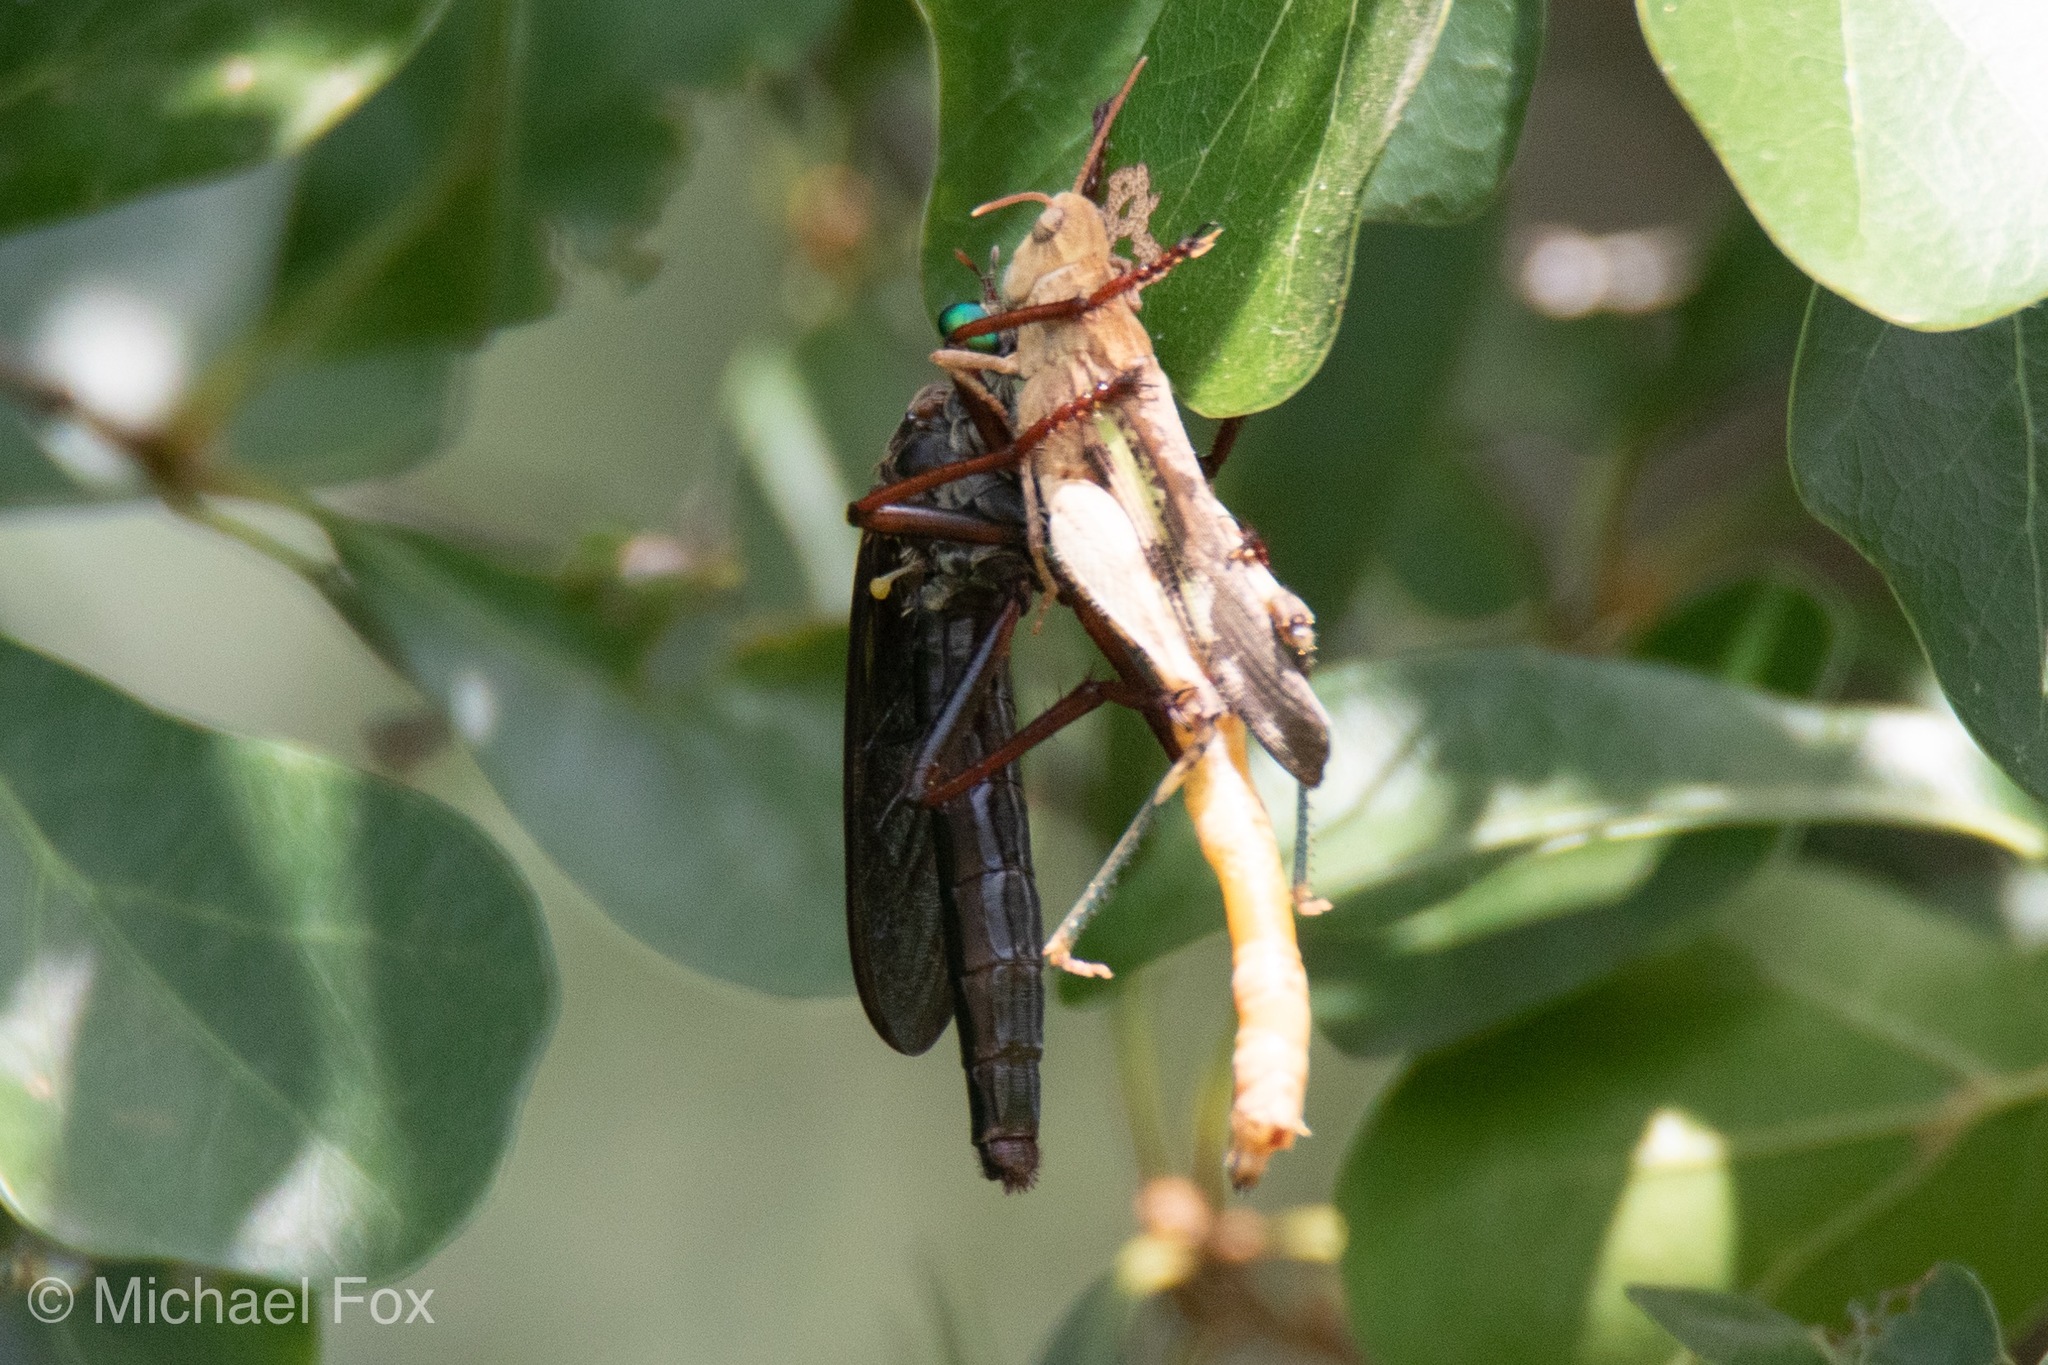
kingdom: Animalia
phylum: Arthropoda
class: Insecta
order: Diptera
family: Asilidae
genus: Microstylum
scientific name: Microstylum morosum
